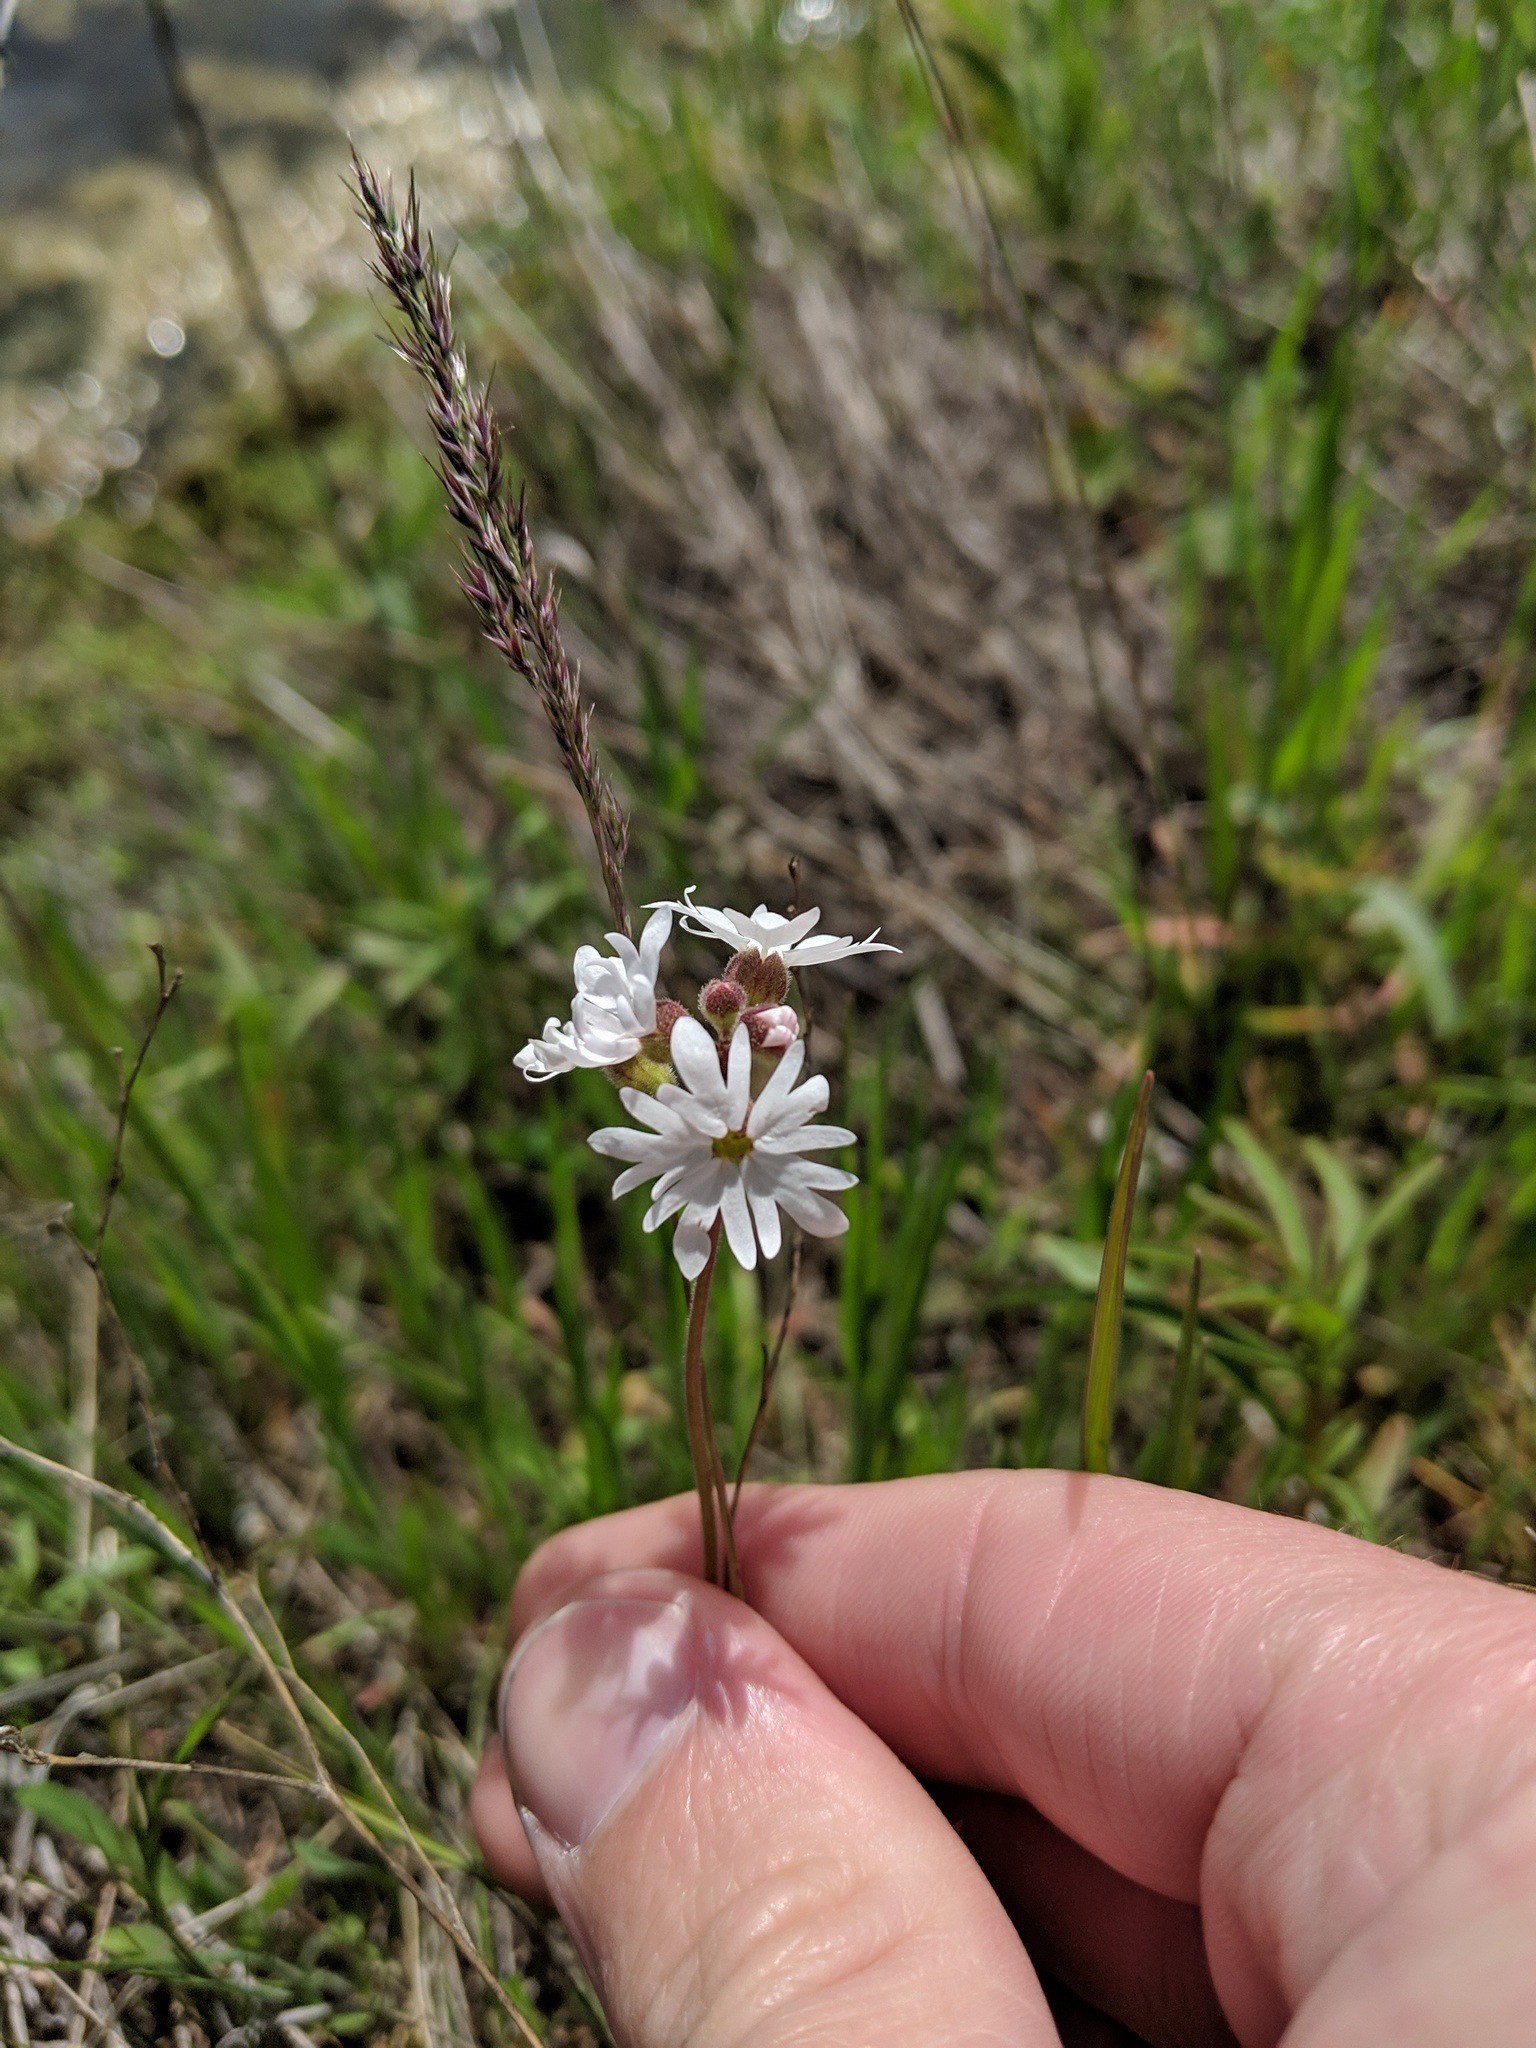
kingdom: Plantae
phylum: Tracheophyta
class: Magnoliopsida
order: Saxifragales
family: Saxifragaceae
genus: Lithophragma
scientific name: Lithophragma parviflorum
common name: Small-flowered fringe-cup
